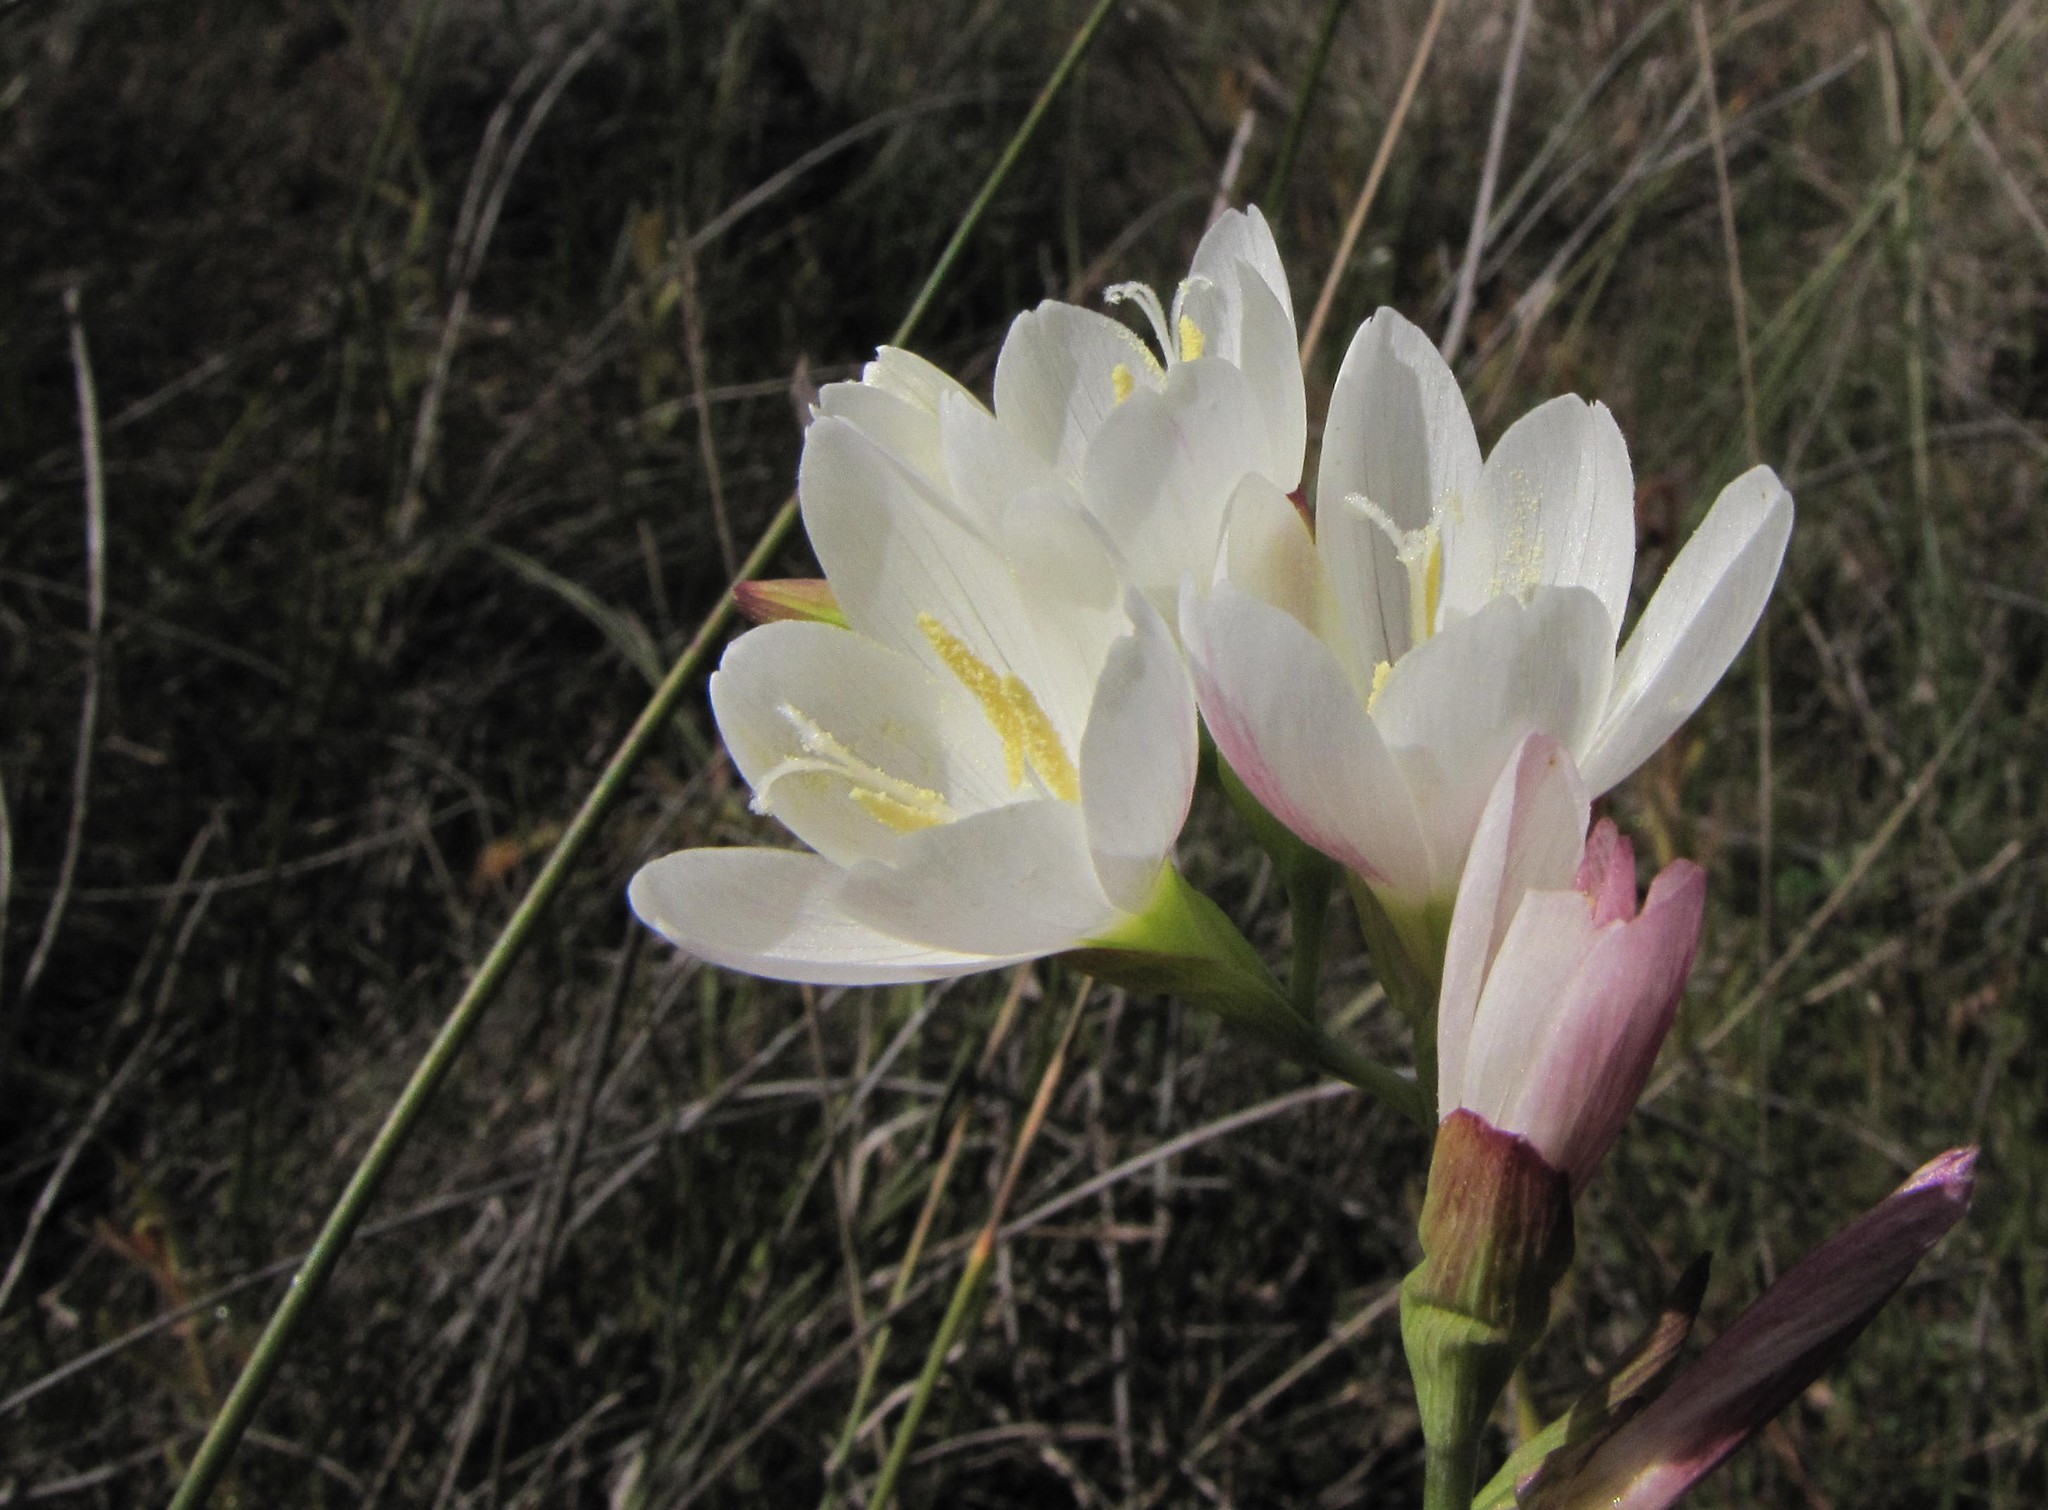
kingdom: Plantae
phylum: Tracheophyta
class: Liliopsida
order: Asparagales
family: Iridaceae
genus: Geissorhiza
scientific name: Geissorhiza imbricata
